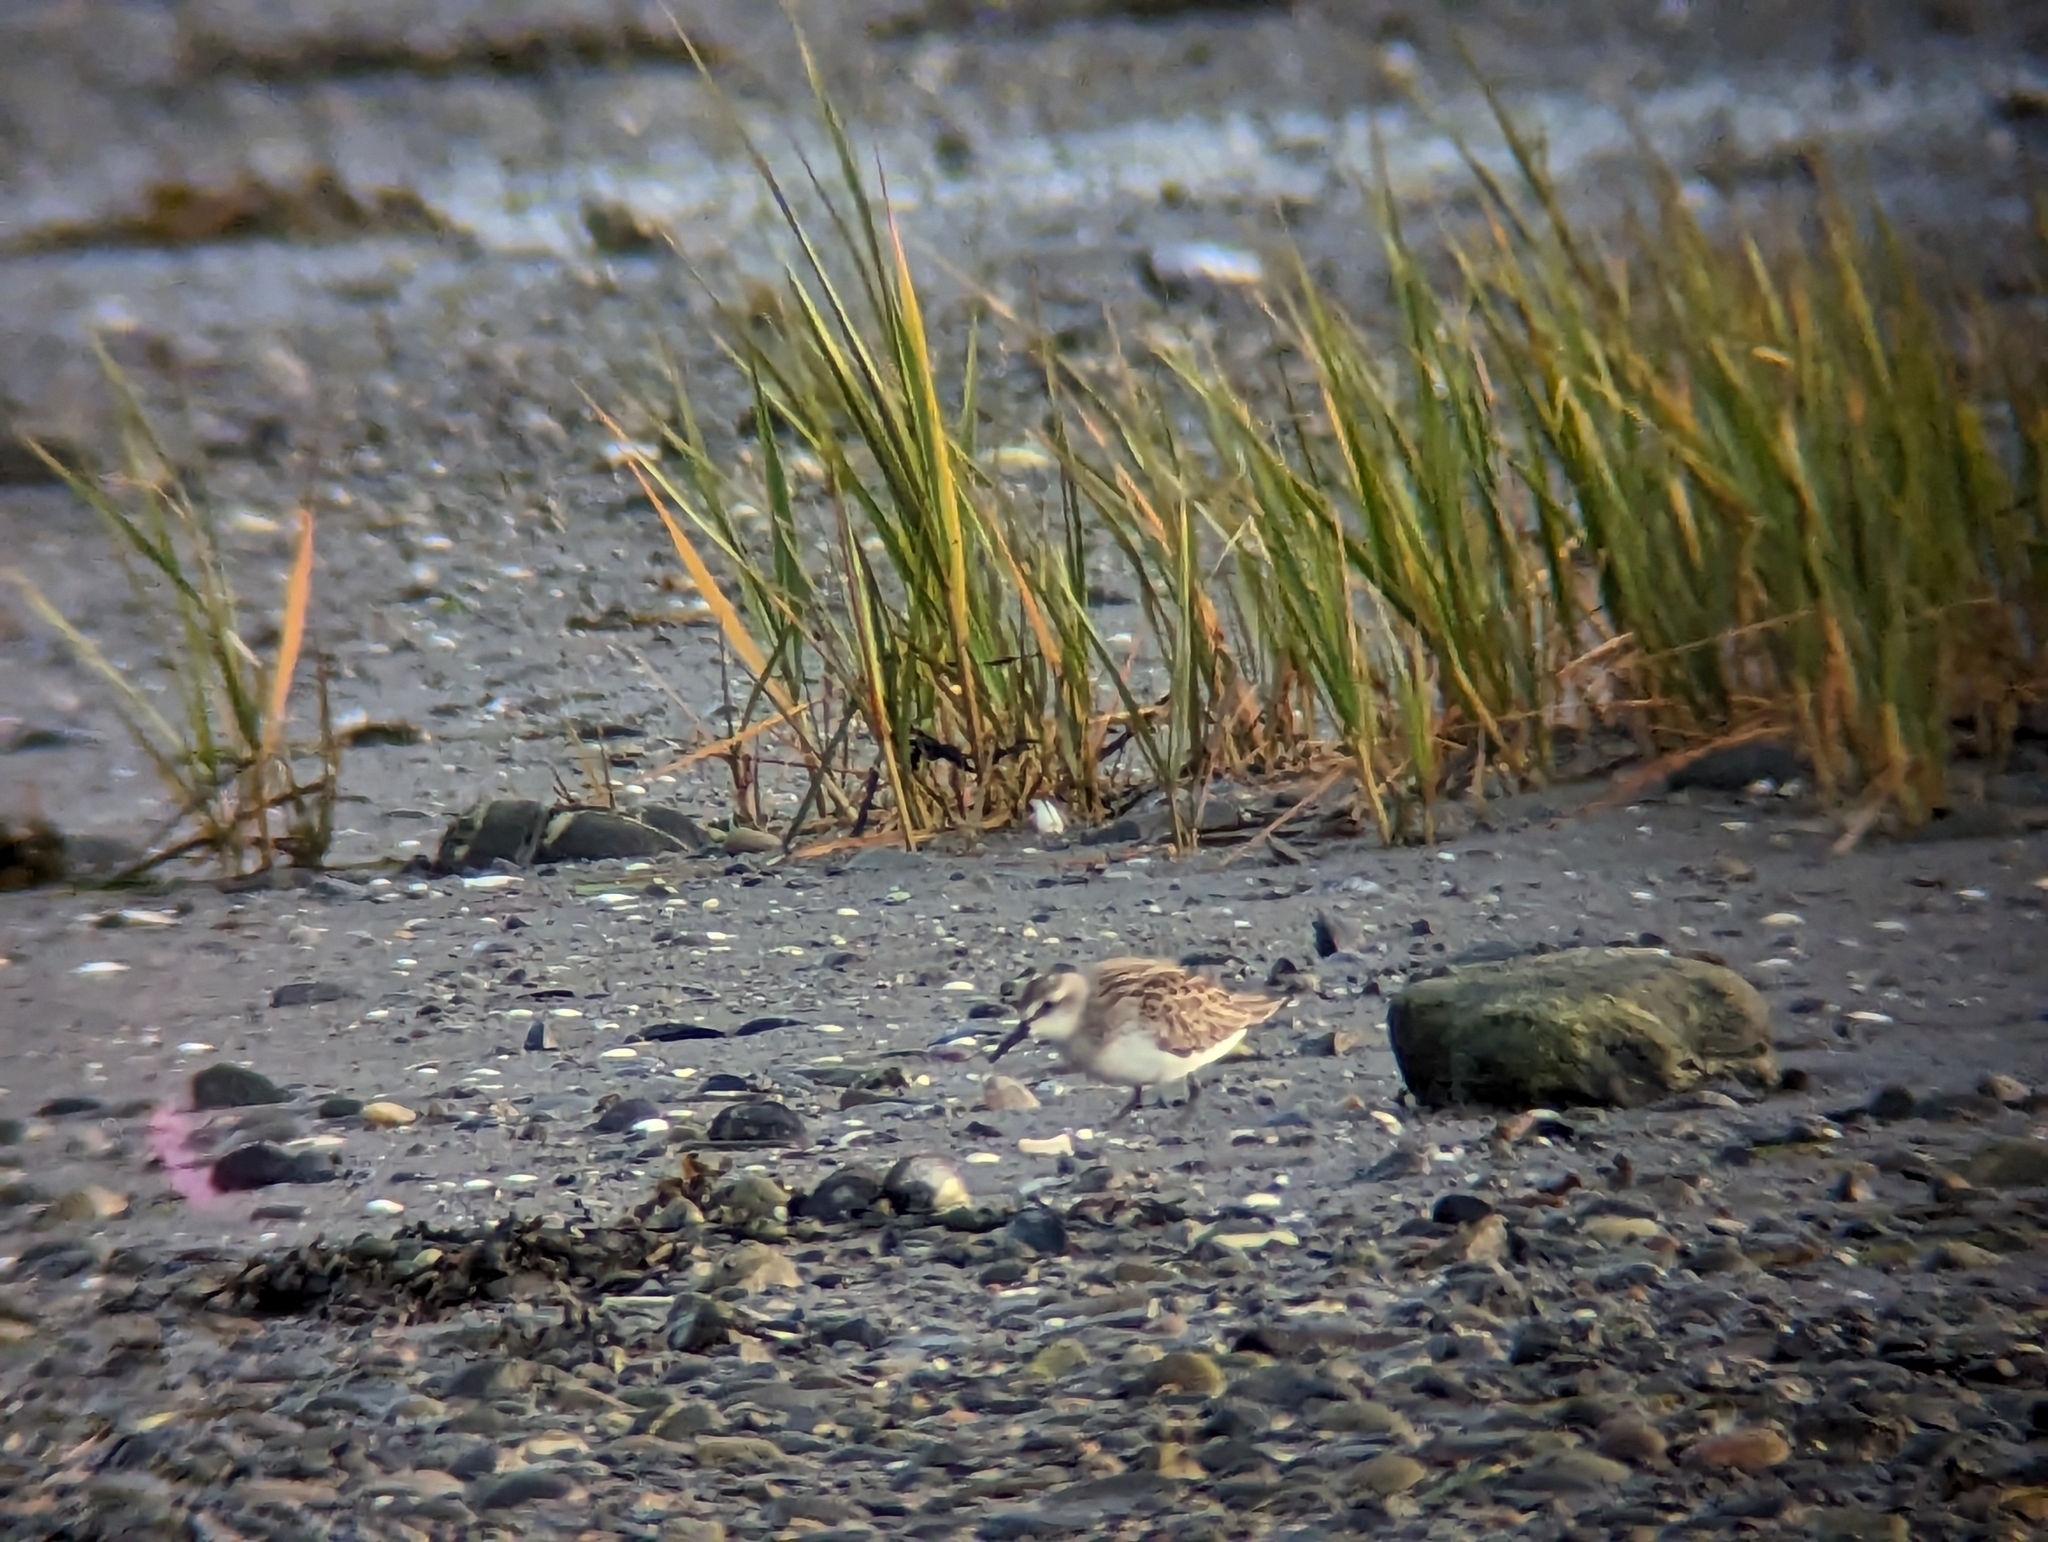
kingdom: Animalia
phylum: Chordata
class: Aves
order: Charadriiformes
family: Scolopacidae
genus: Calidris
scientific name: Calidris pusilla
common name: Semipalmated sandpiper
